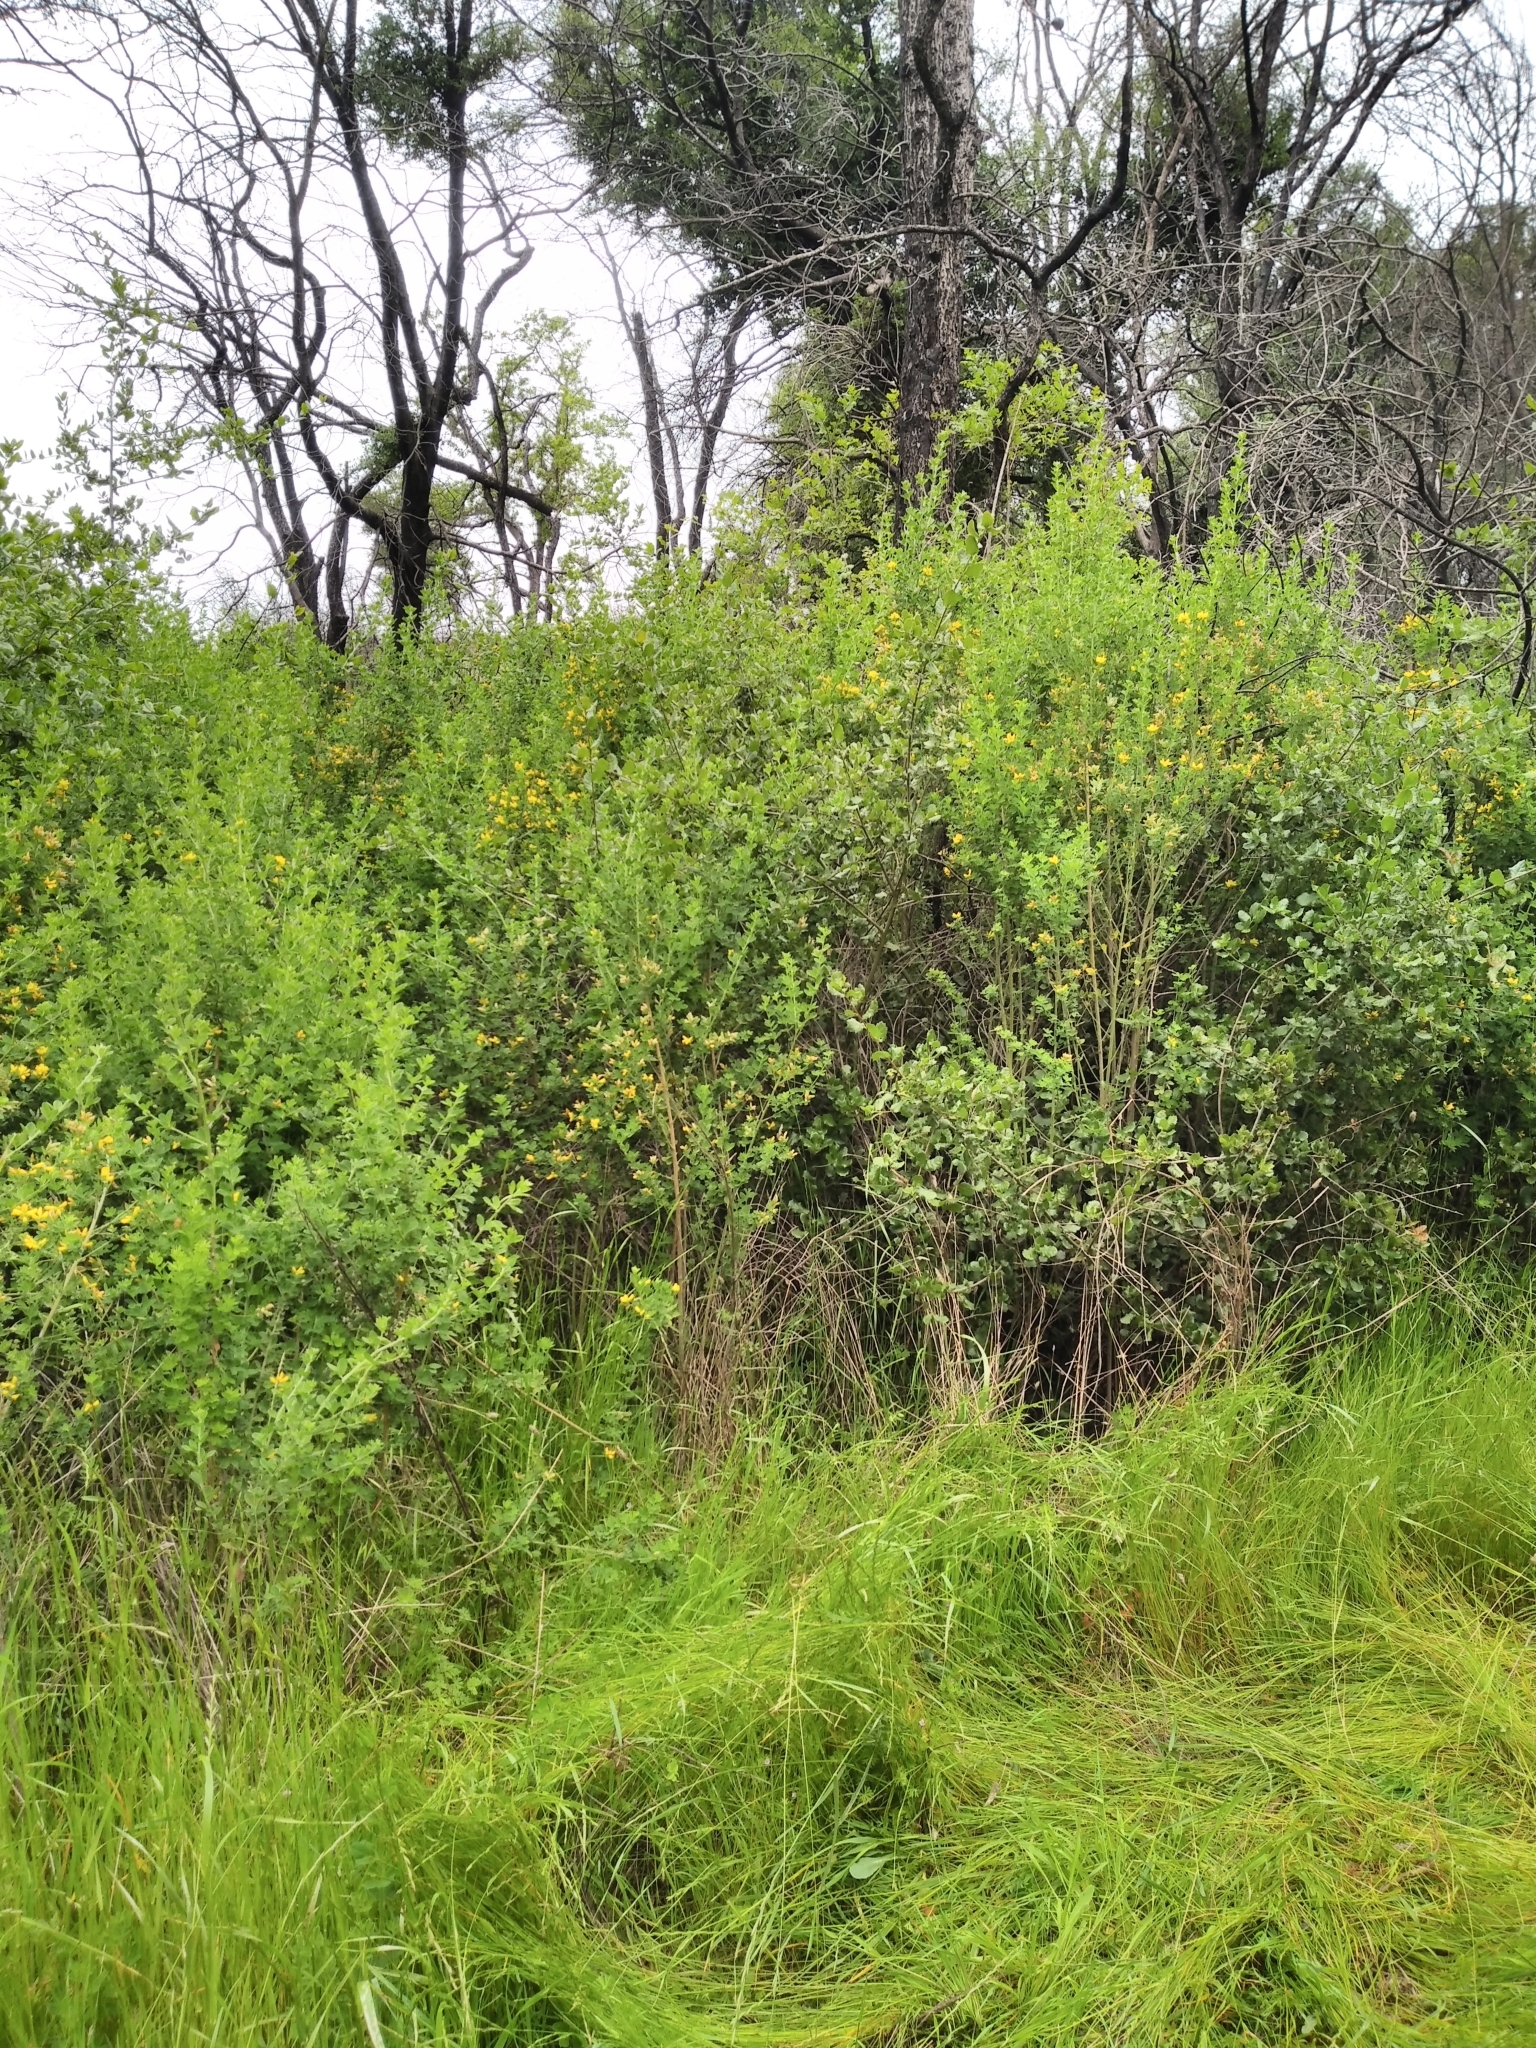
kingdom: Plantae
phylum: Tracheophyta
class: Magnoliopsida
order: Fabales
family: Fabaceae
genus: Genista
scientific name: Genista monspessulana
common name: Montpellier broom
